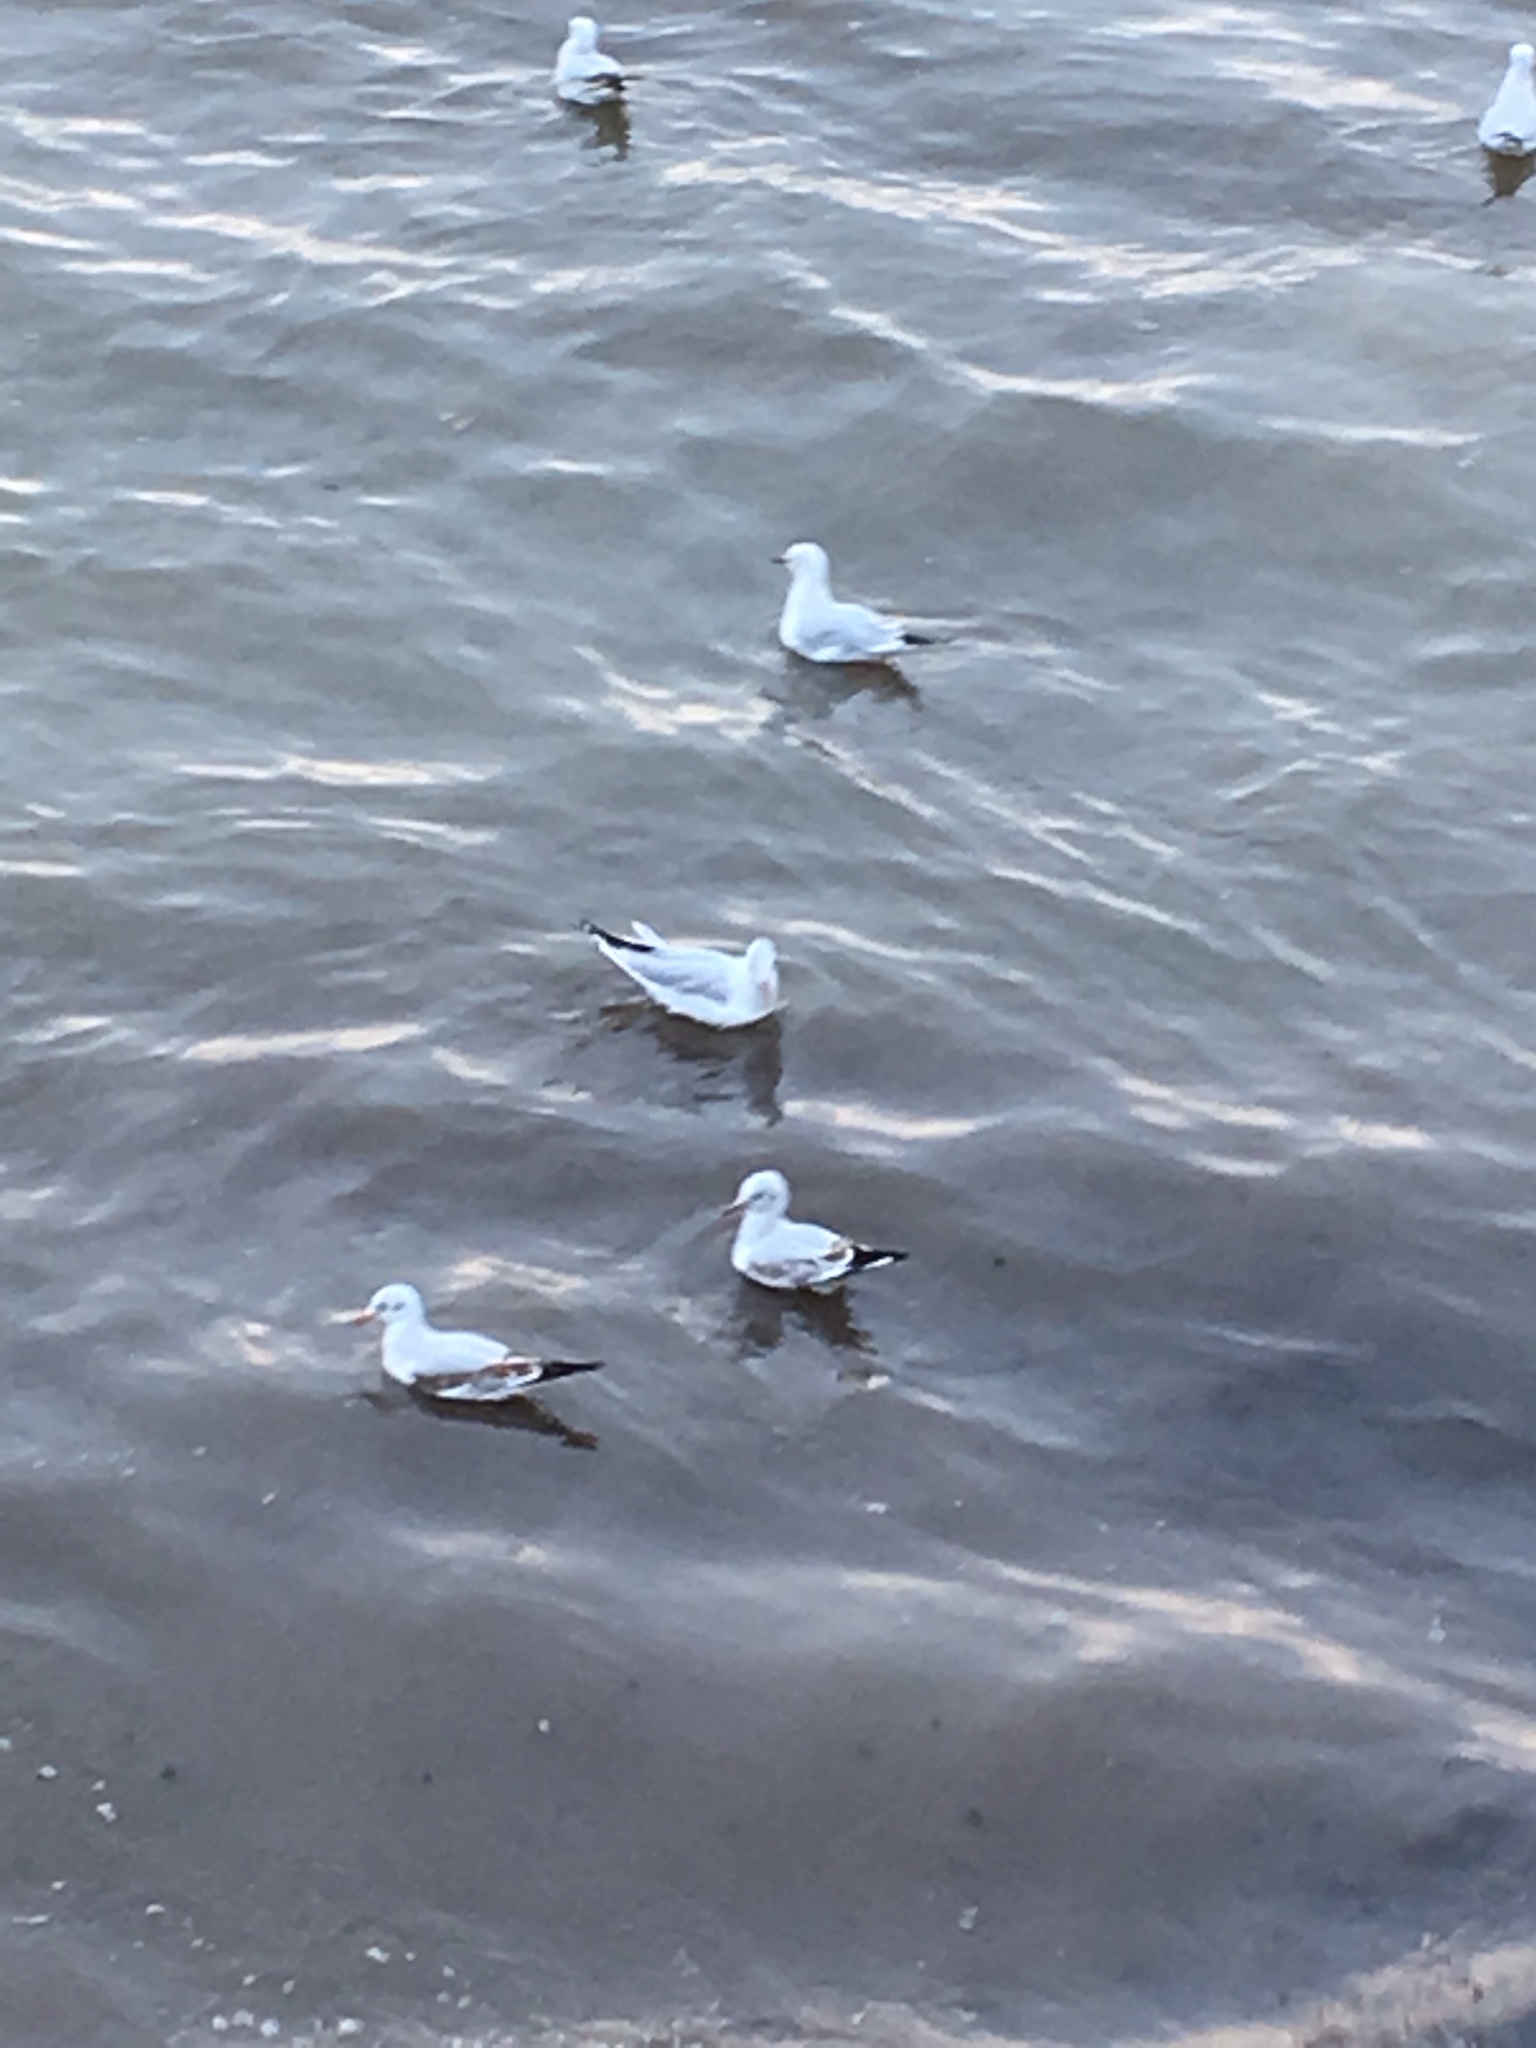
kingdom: Animalia
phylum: Chordata
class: Aves
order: Charadriiformes
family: Laridae
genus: Chroicocephalus
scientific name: Chroicocephalus ridibundus
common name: Black-headed gull
